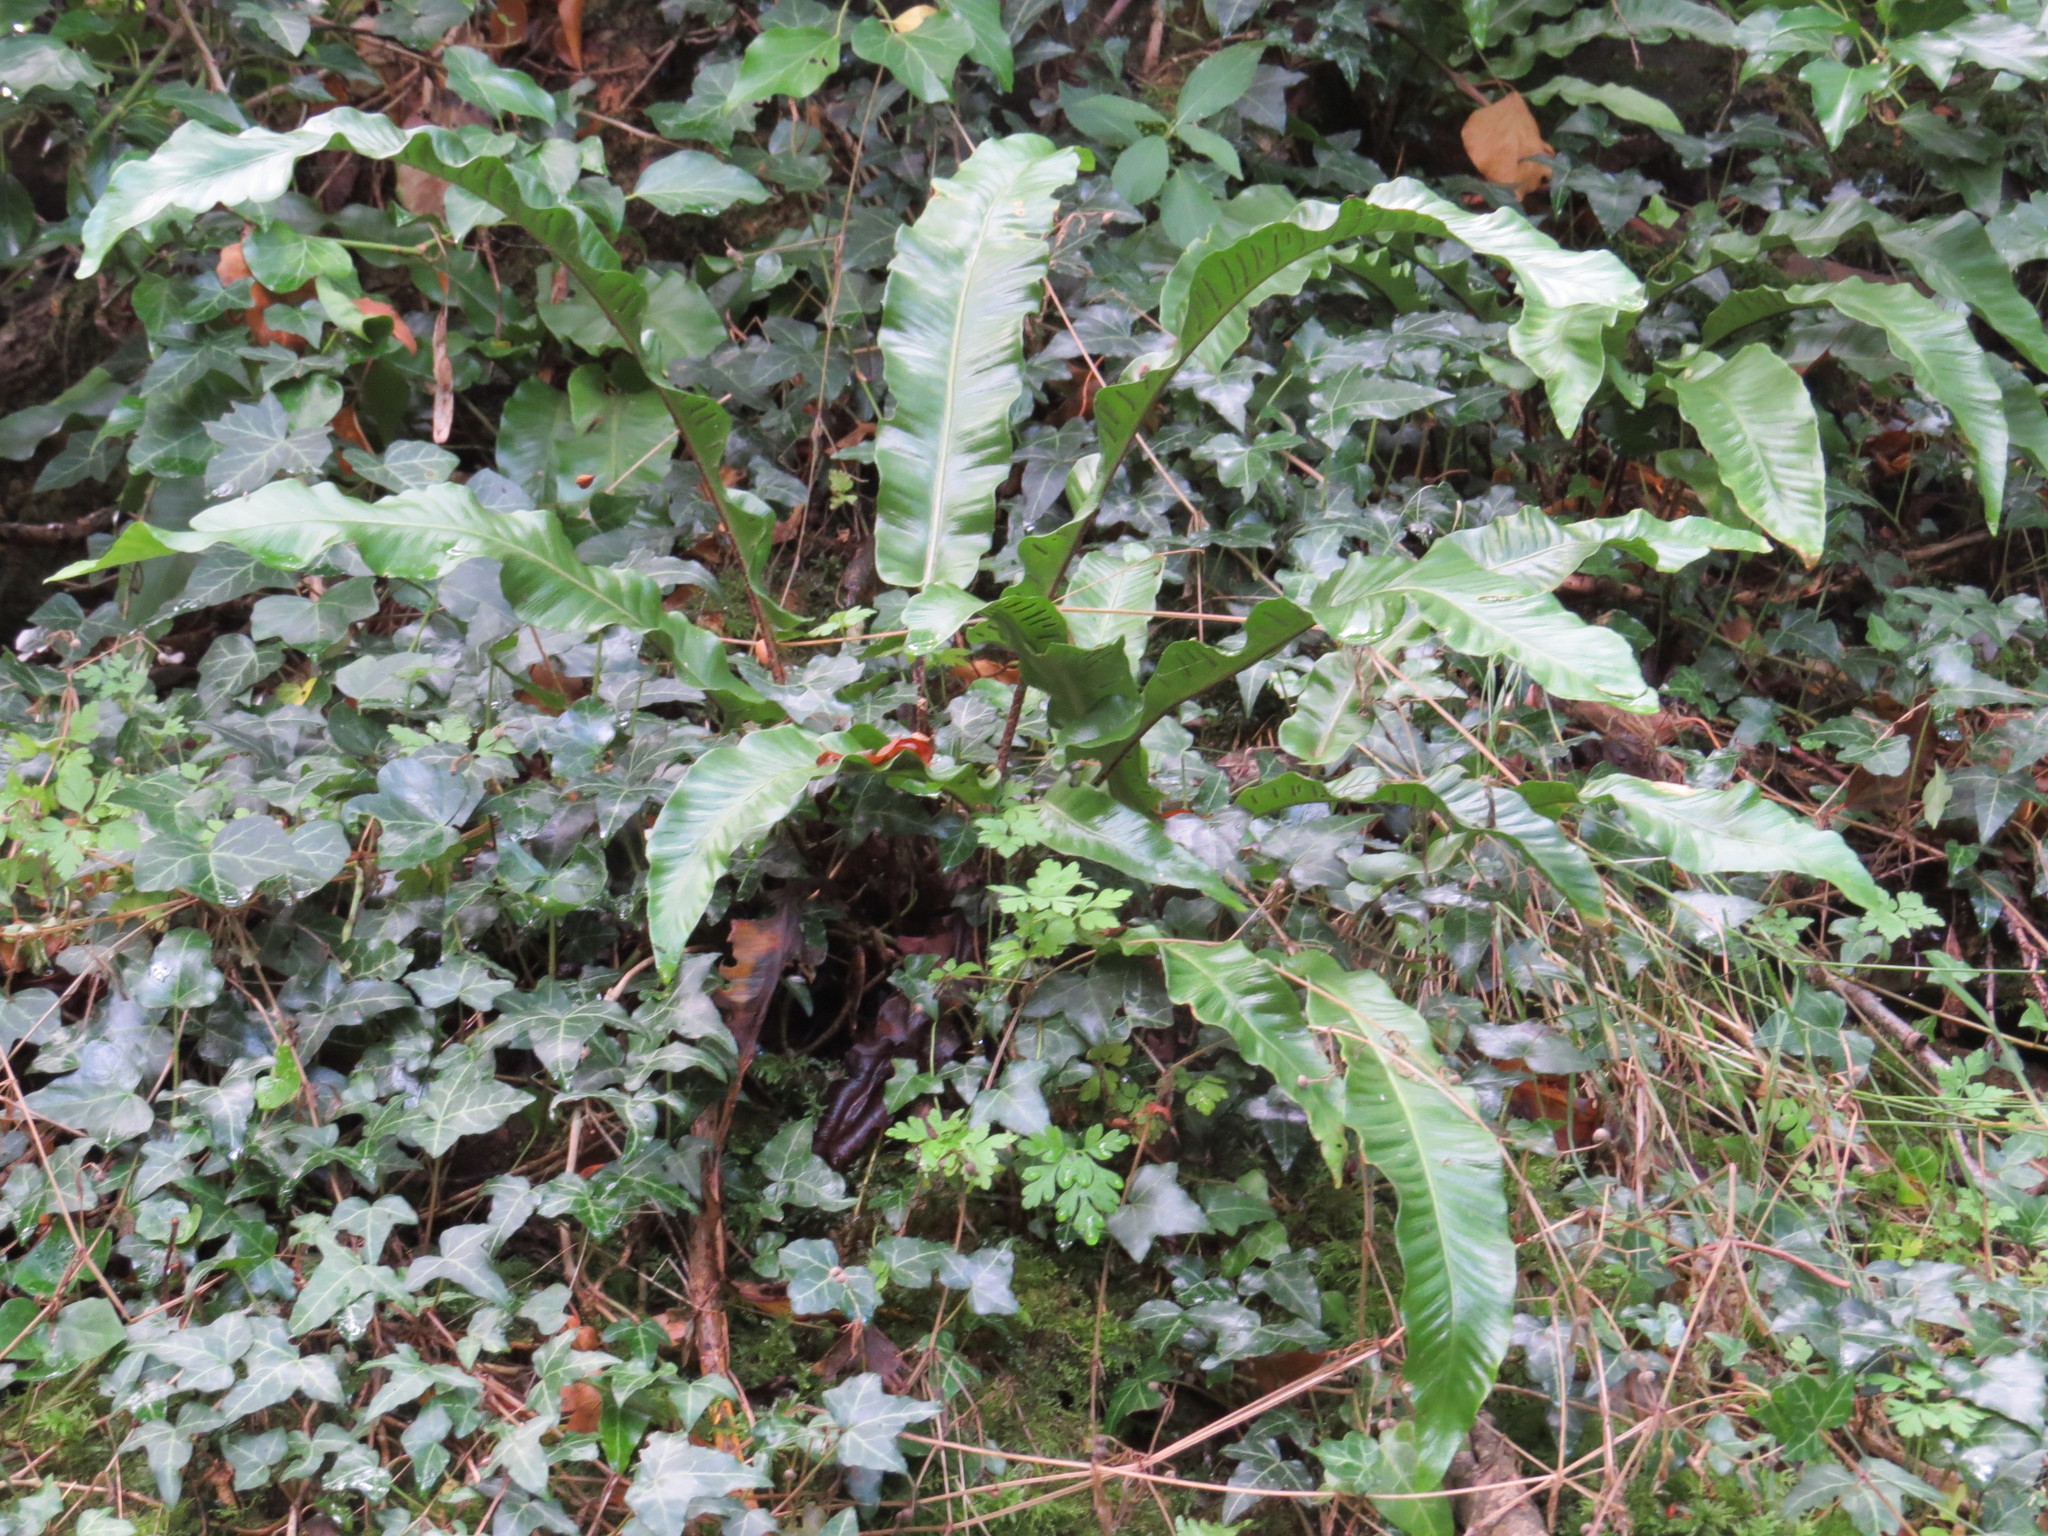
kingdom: Plantae
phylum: Tracheophyta
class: Polypodiopsida
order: Polypodiales
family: Aspleniaceae
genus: Asplenium
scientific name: Asplenium scolopendrium
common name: Hart's-tongue fern
